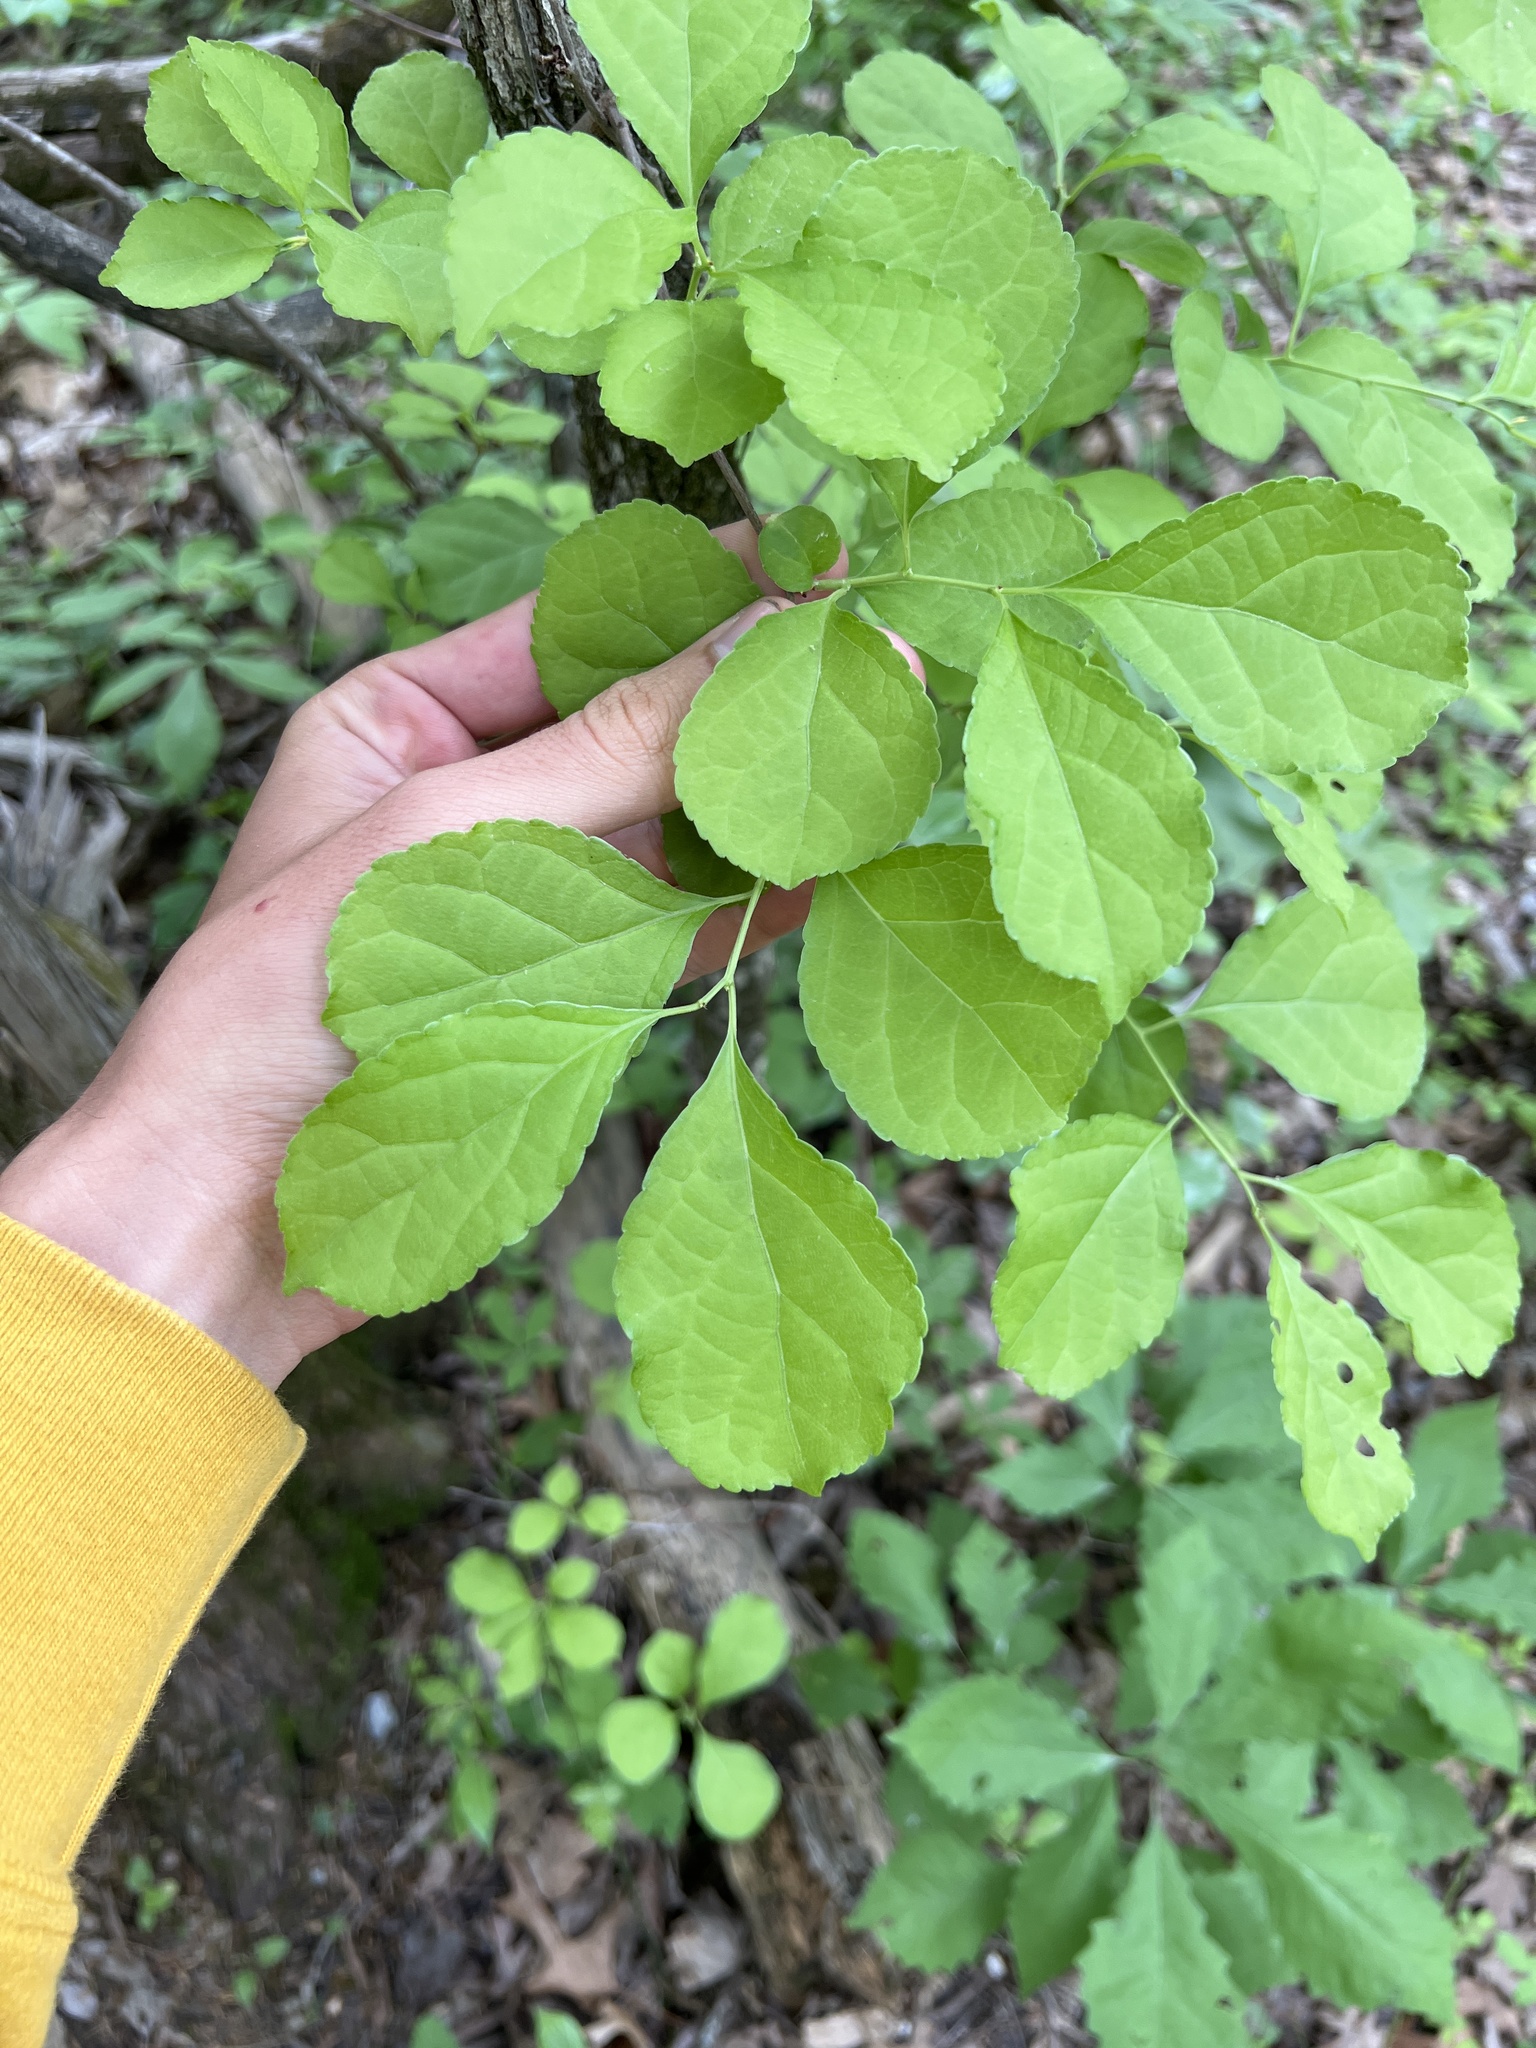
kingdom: Plantae
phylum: Tracheophyta
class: Magnoliopsida
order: Celastrales
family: Celastraceae
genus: Celastrus
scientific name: Celastrus orbiculatus
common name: Oriental bittersweet
